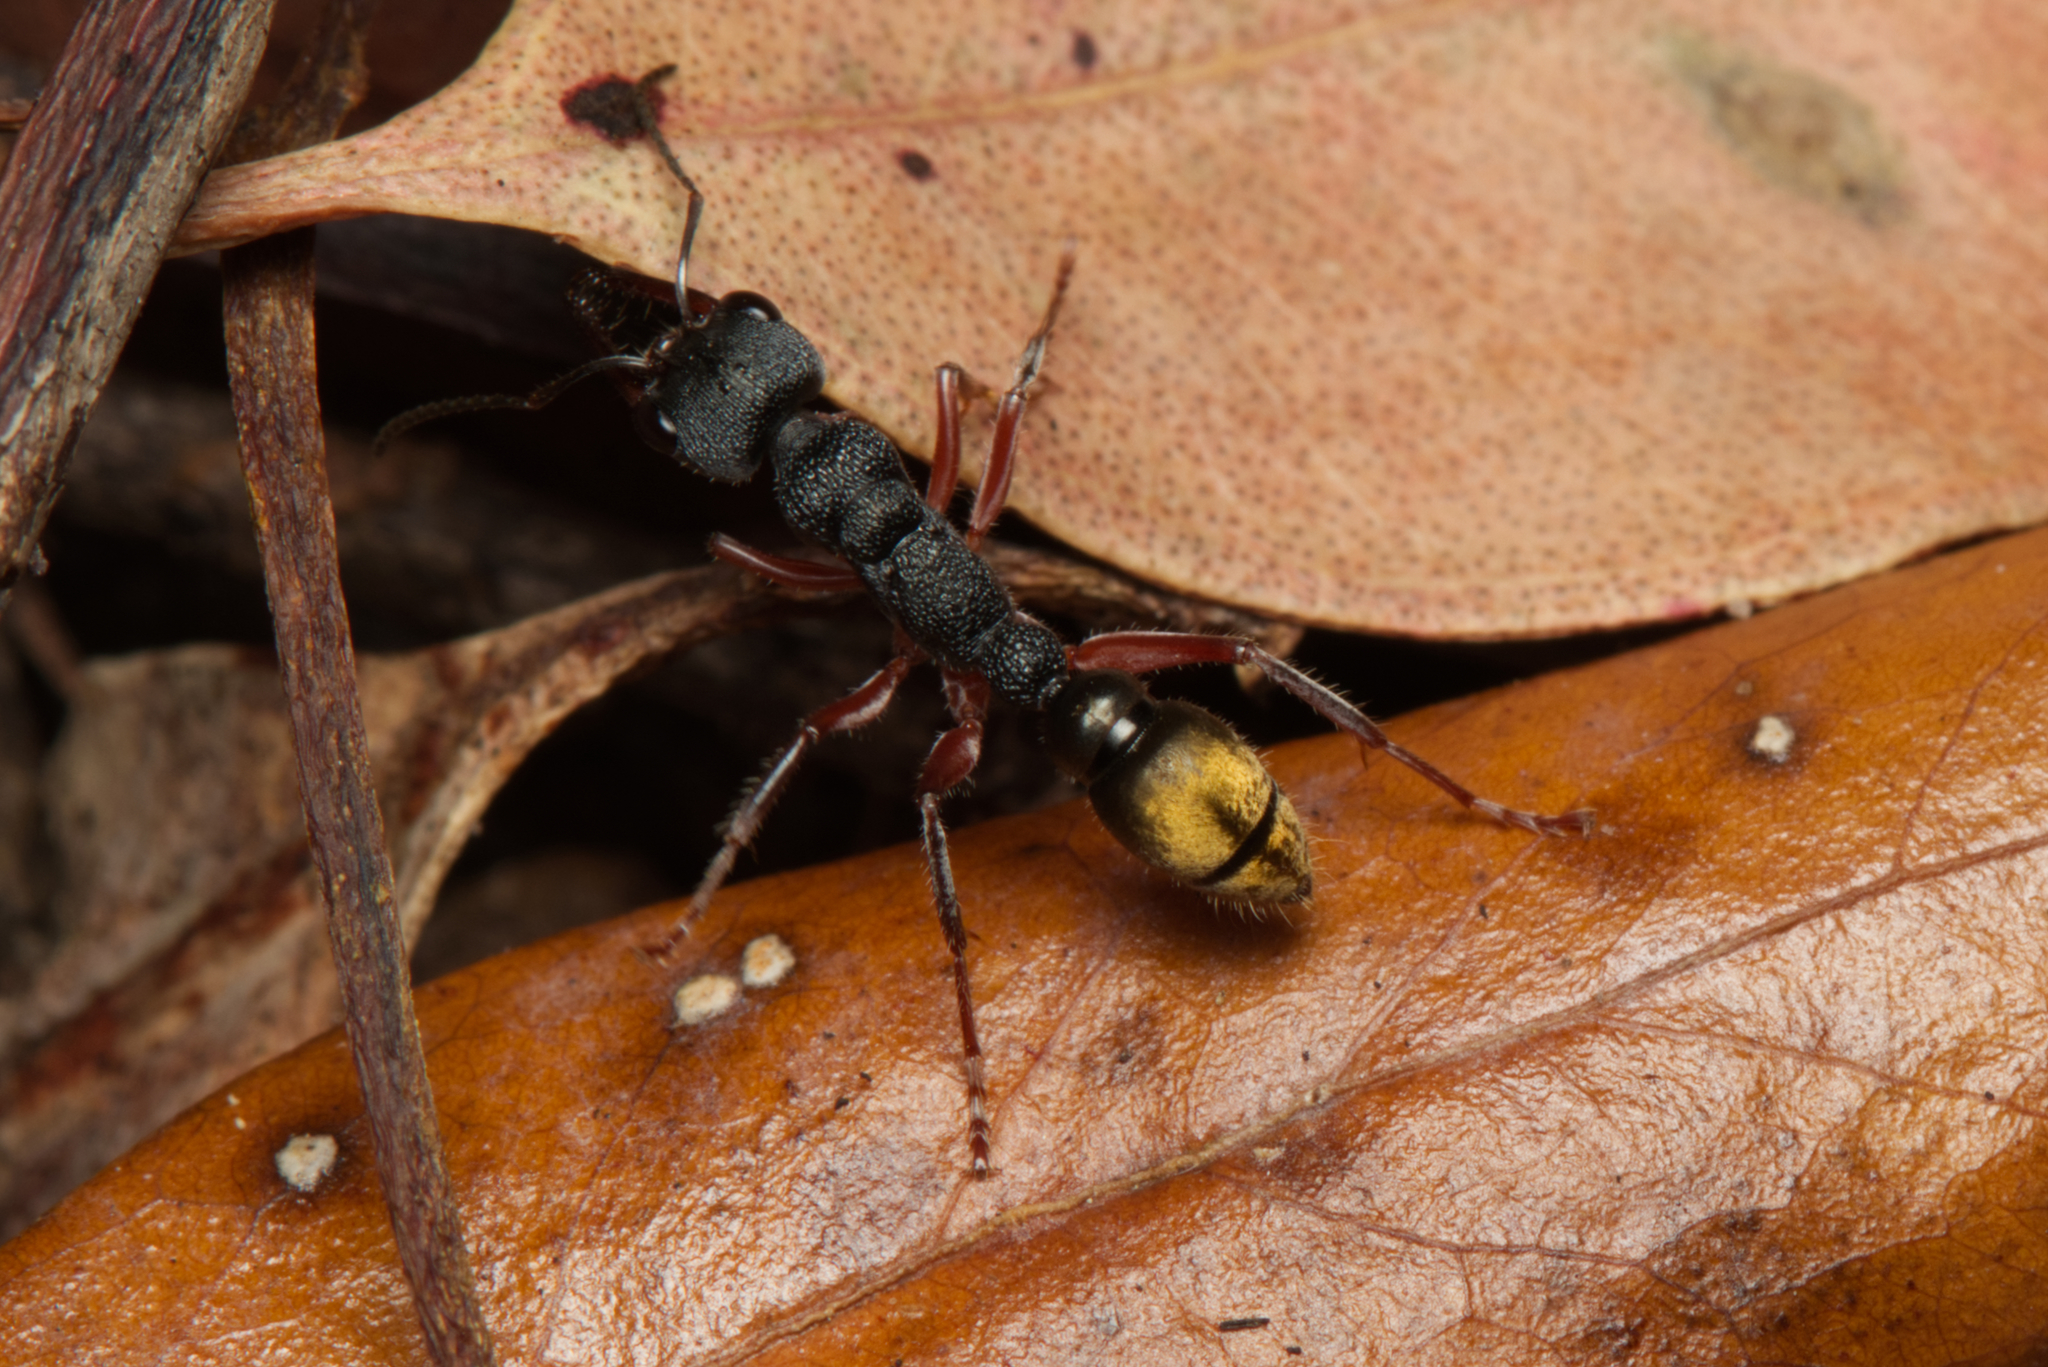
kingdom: Animalia
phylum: Arthropoda
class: Insecta
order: Hymenoptera
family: Formicidae
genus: Myrmecia
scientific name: Myrmecia fulvipes
